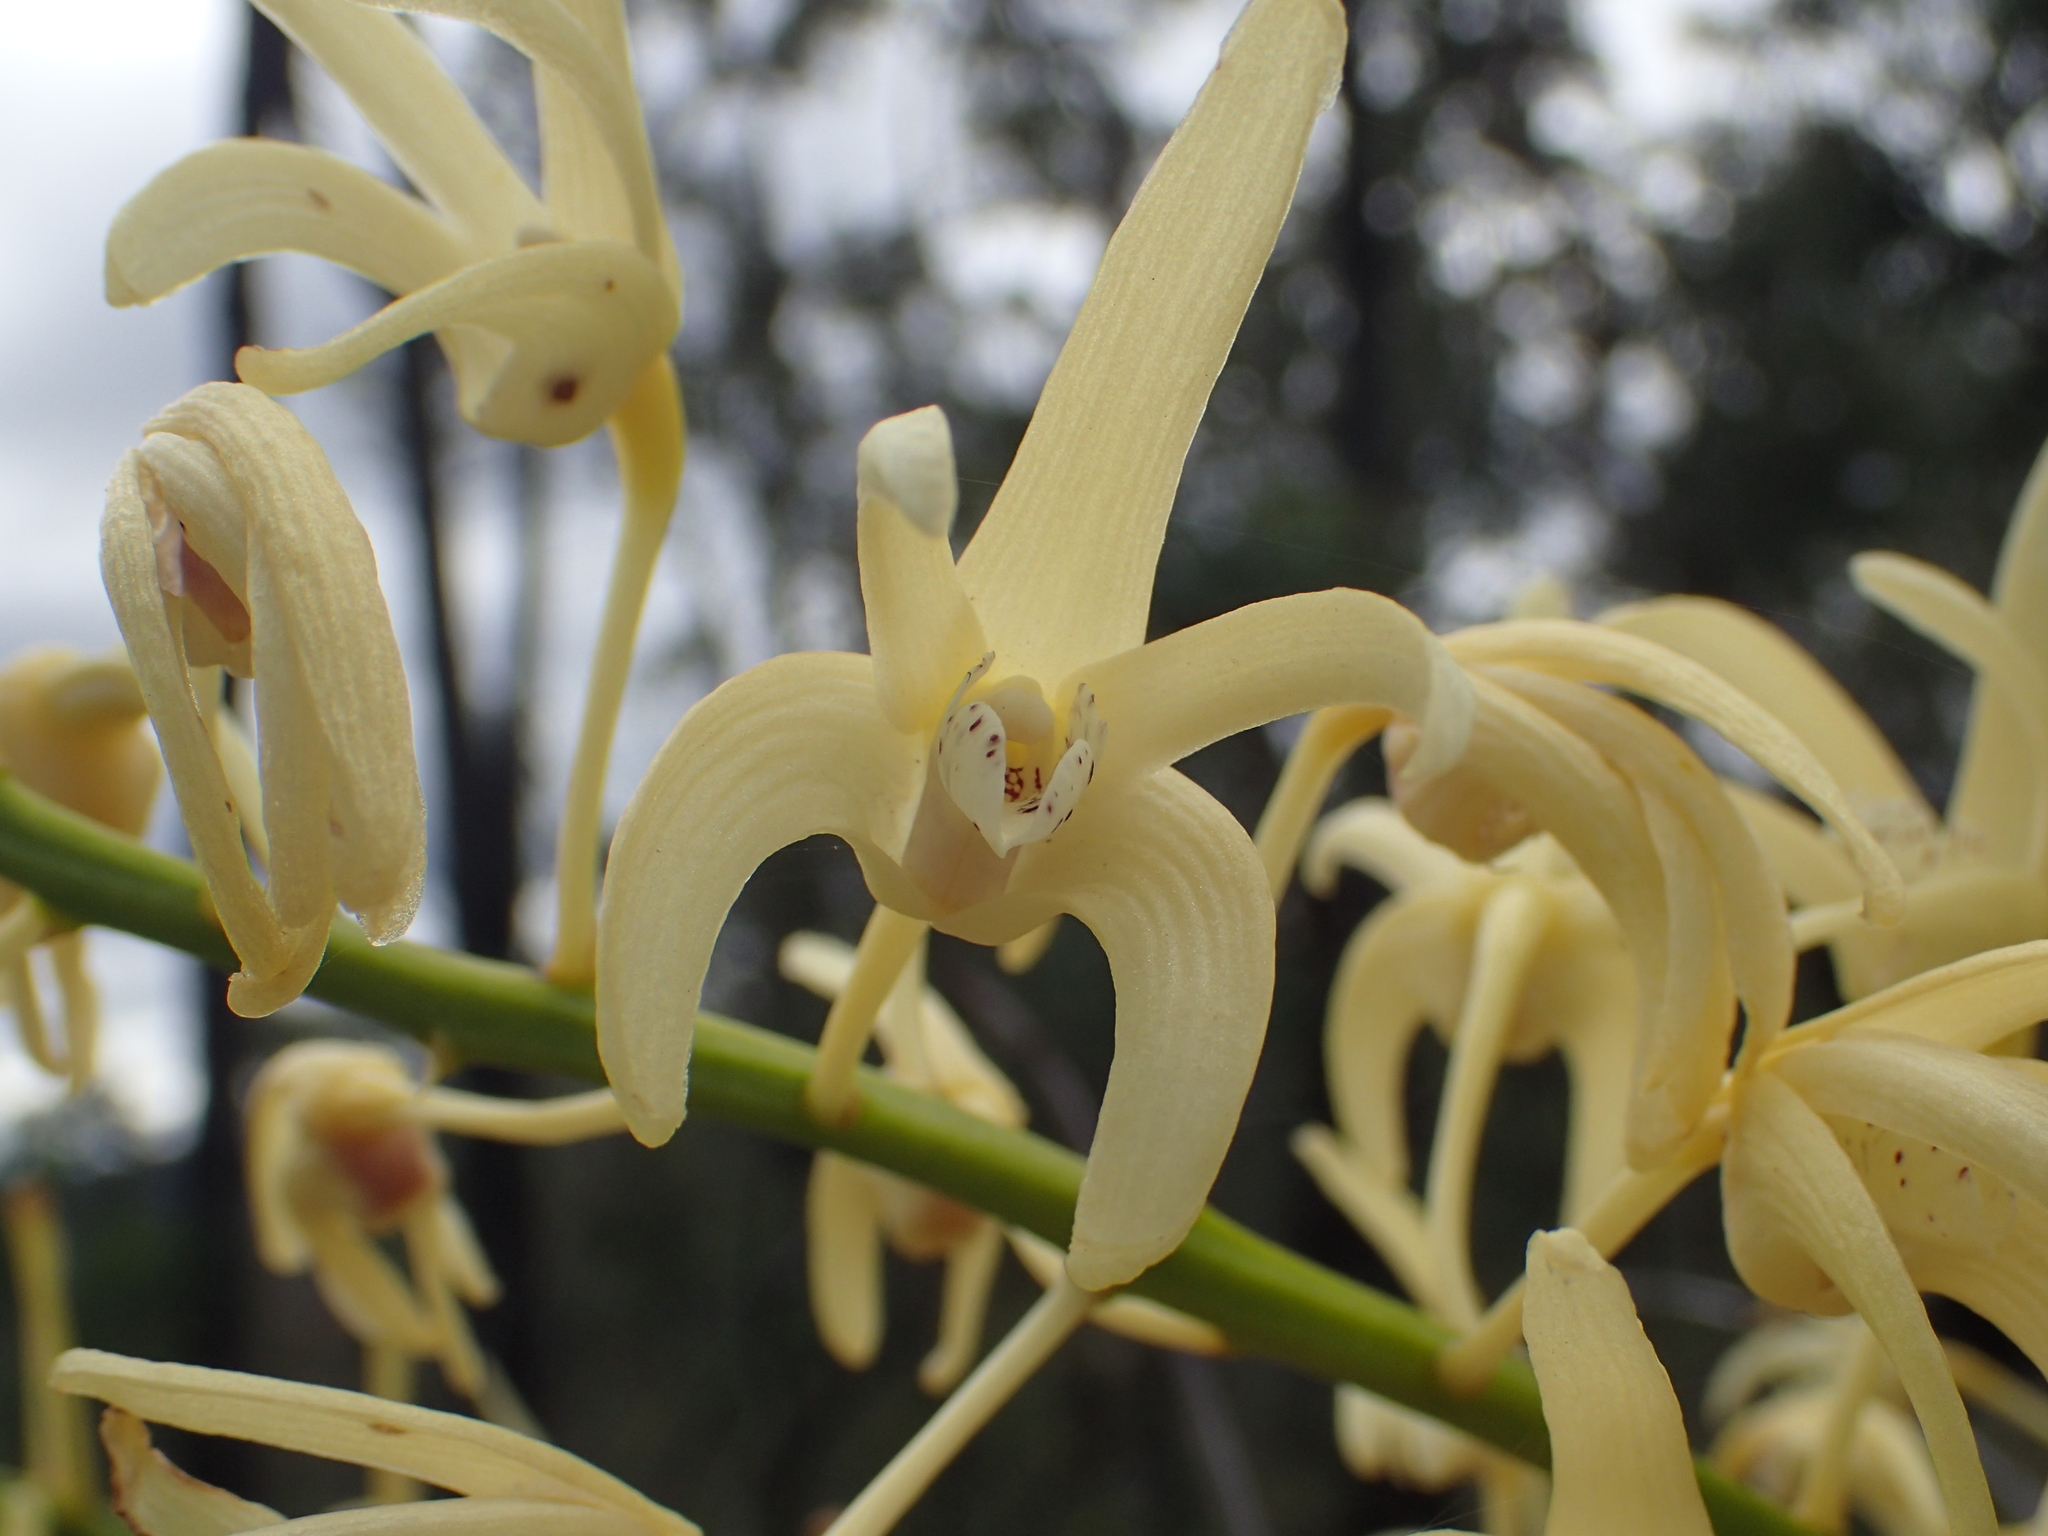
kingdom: Plantae
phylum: Tracheophyta
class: Liliopsida
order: Asparagales
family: Orchidaceae
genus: Dendrobium
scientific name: Dendrobium speciosum
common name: Rock-lily
